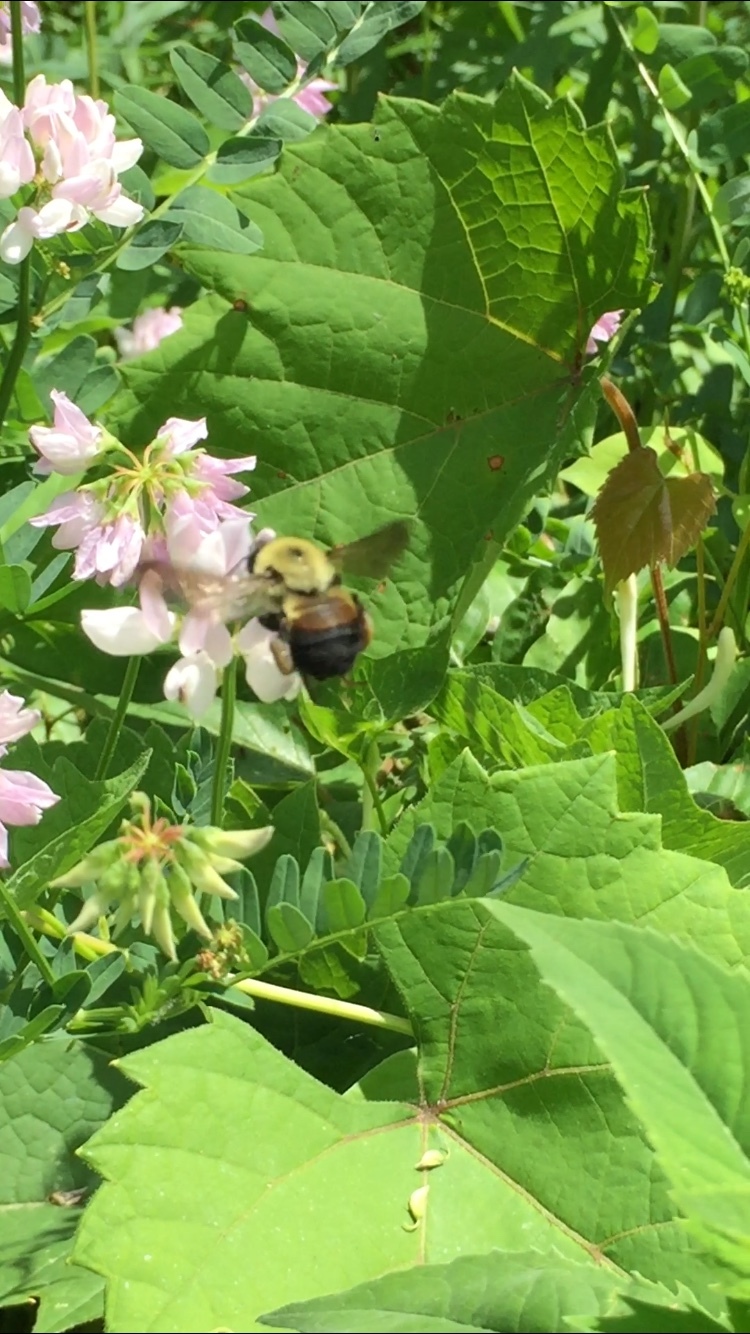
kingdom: Animalia
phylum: Arthropoda
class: Insecta
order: Hymenoptera
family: Apidae
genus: Bombus
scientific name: Bombus griseocollis
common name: Brown-belted bumble bee
